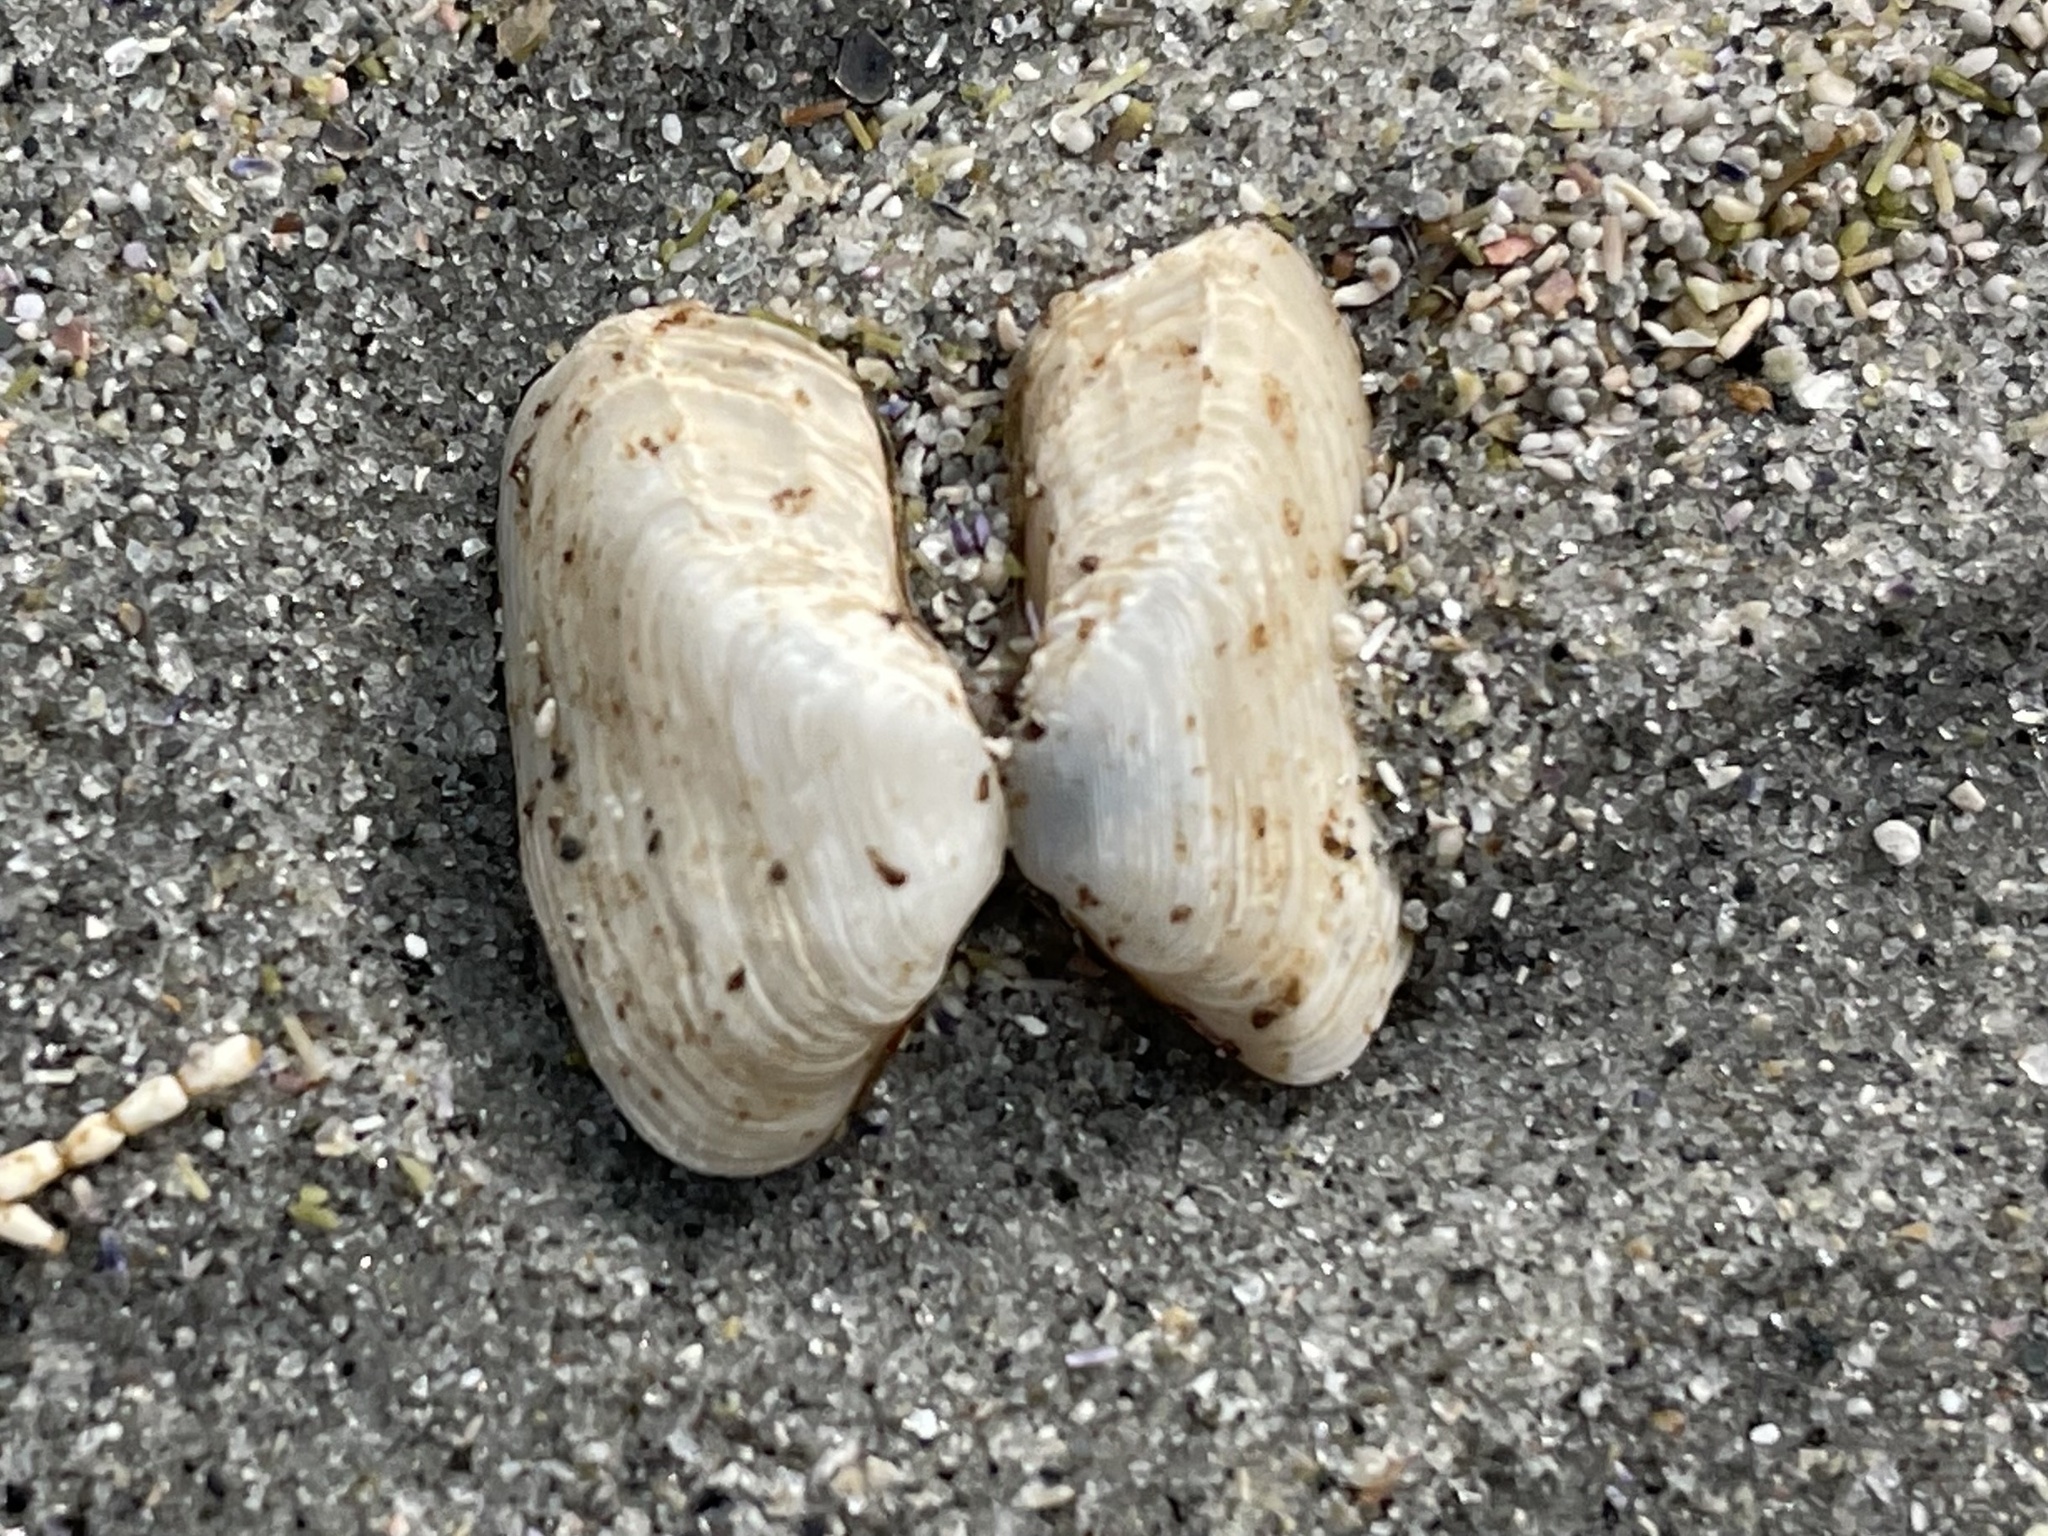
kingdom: Animalia
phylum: Mollusca
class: Bivalvia
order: Adapedonta
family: Hiatellidae
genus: Hiatella
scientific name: Hiatella arctica
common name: Arctic hiatella
